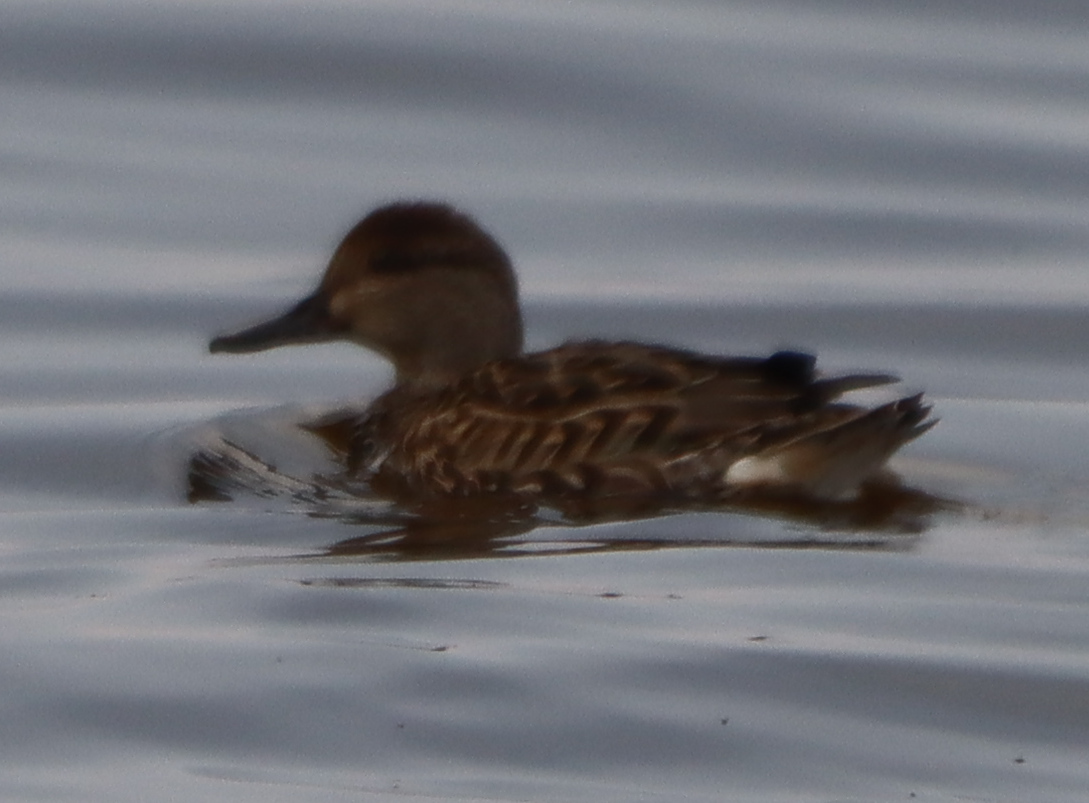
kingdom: Animalia
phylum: Chordata
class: Aves
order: Anseriformes
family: Anatidae
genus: Anas
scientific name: Anas crecca
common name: Eurasian teal
